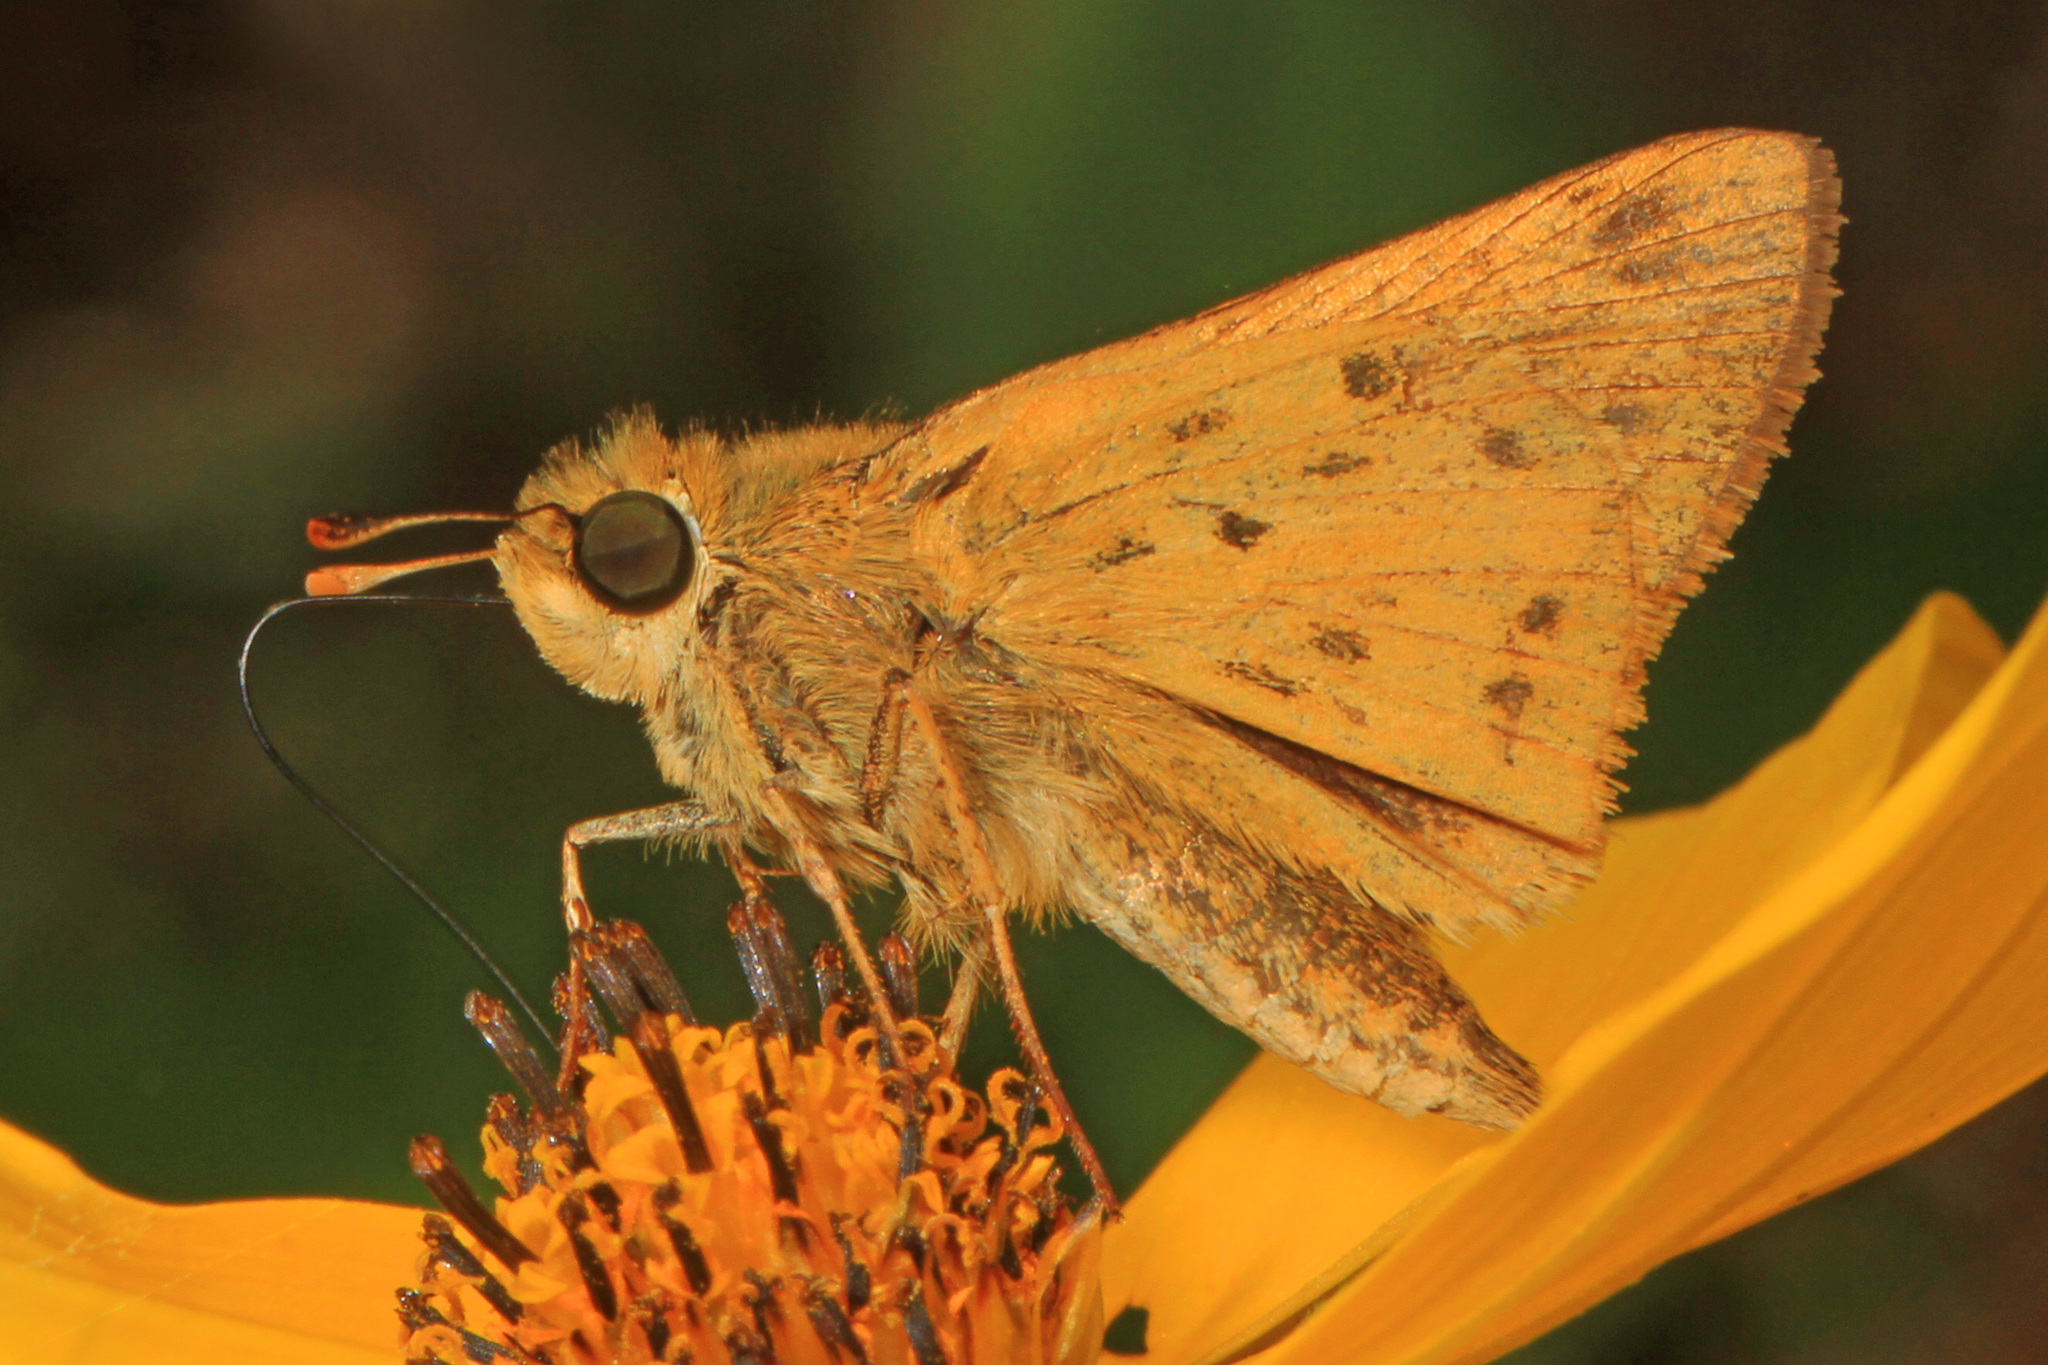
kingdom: Animalia
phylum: Arthropoda
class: Insecta
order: Lepidoptera
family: Hesperiidae
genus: Hylephila
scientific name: Hylephila phyleus
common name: Fiery skipper
